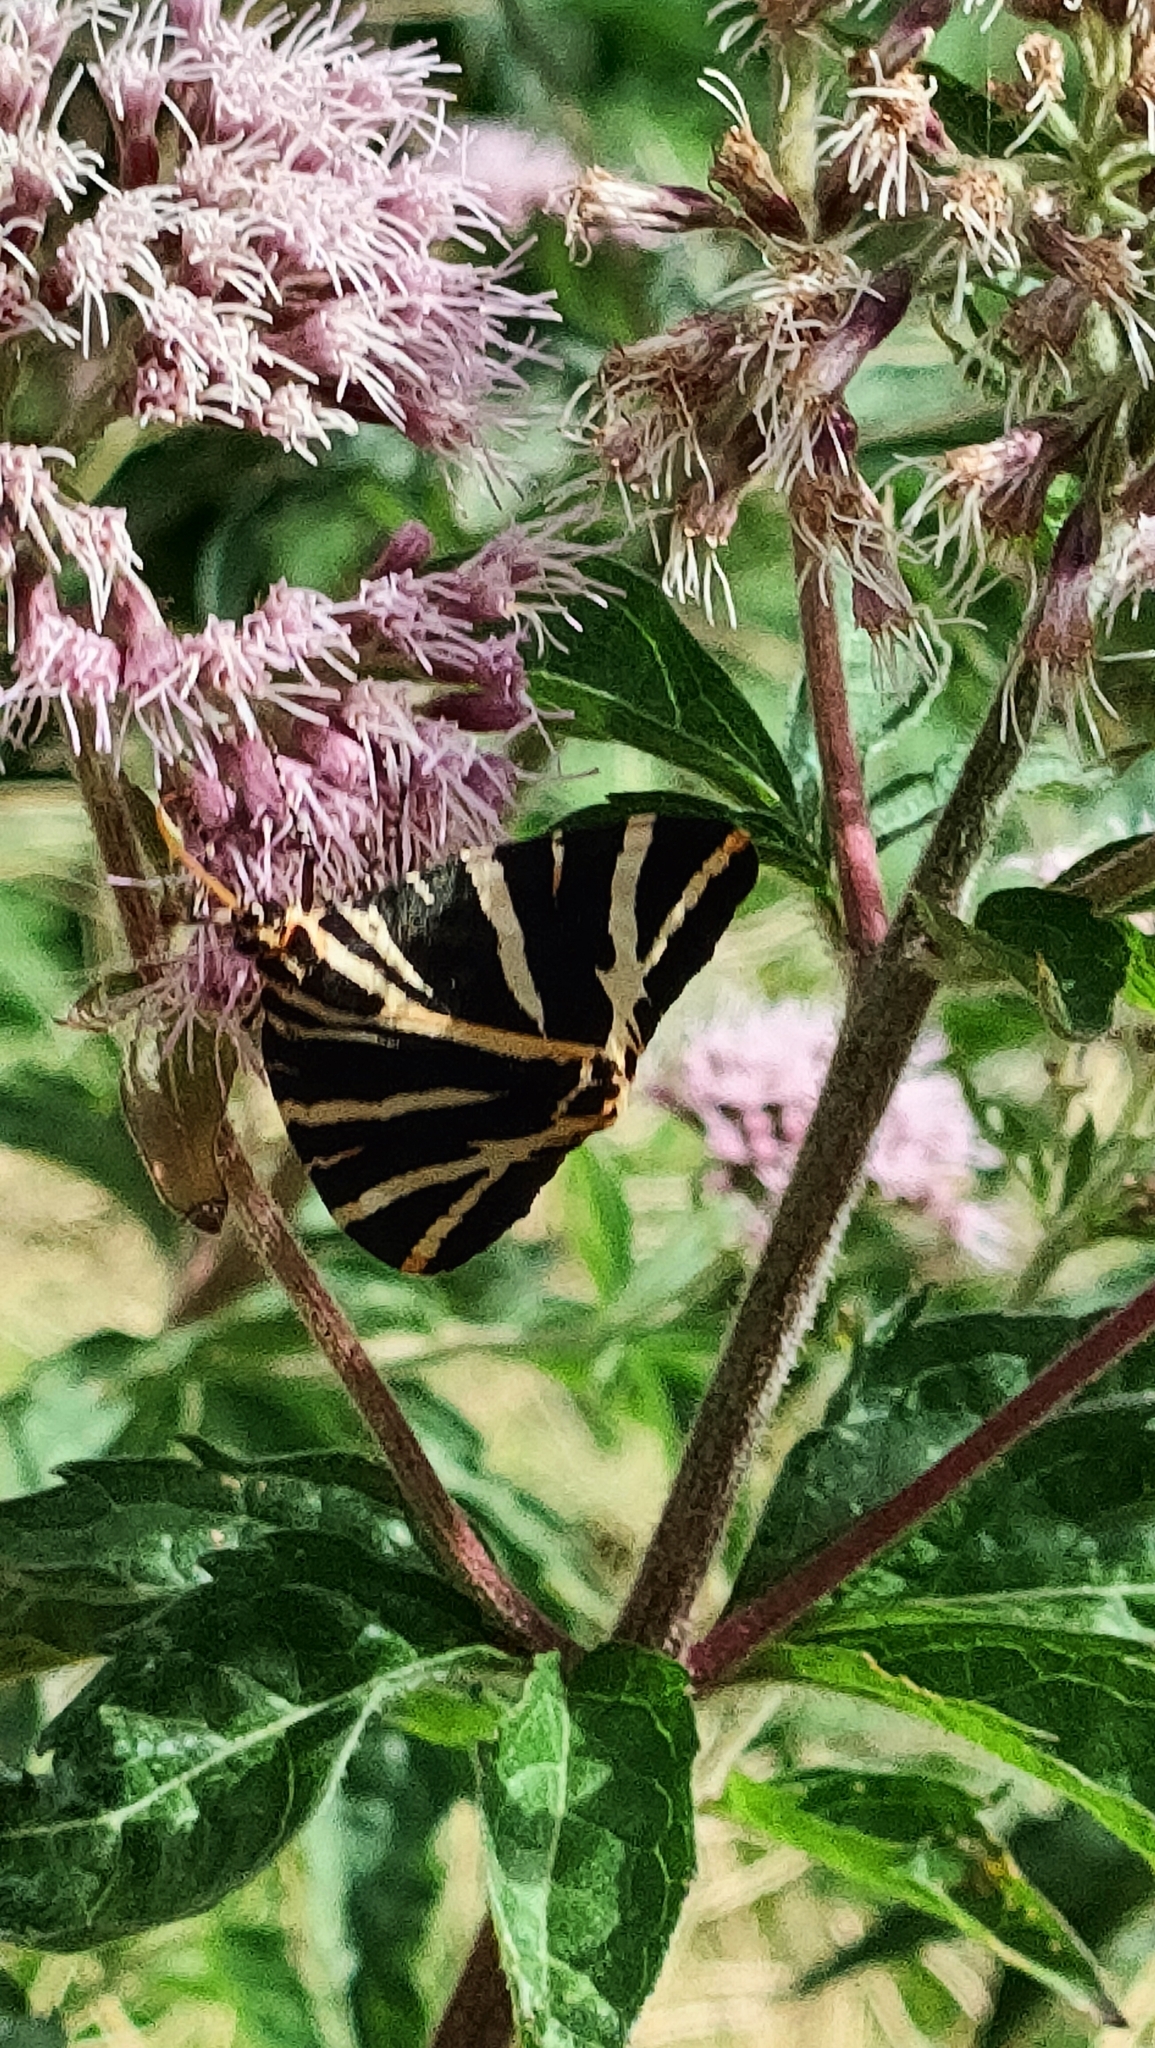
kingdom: Animalia
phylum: Arthropoda
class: Insecta
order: Lepidoptera
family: Erebidae
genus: Euplagia
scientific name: Euplagia quadripunctaria
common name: Jersey tiger
